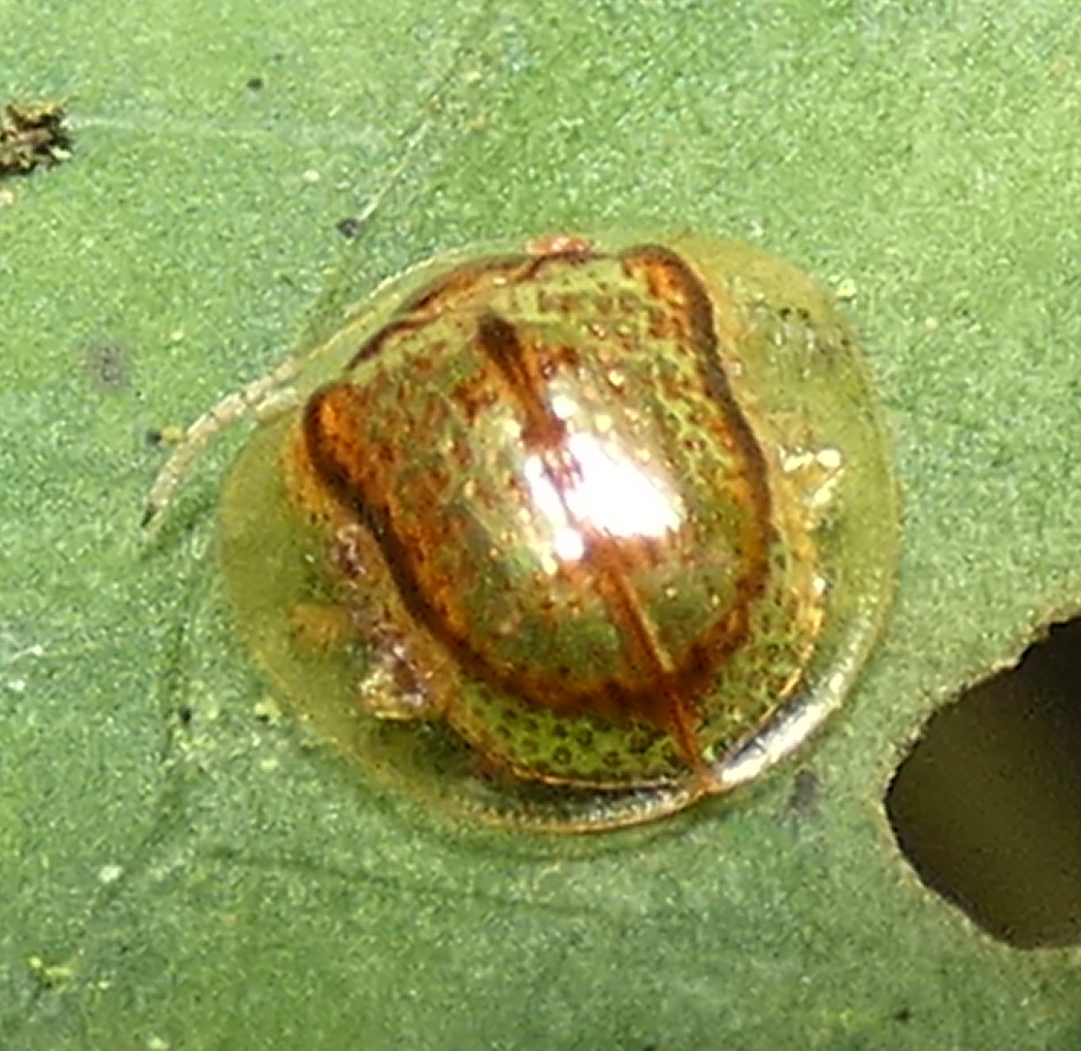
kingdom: Animalia
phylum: Arthropoda
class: Insecta
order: Coleoptera
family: Chrysomelidae
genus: Microctenochira
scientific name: Microctenochira quadrata
